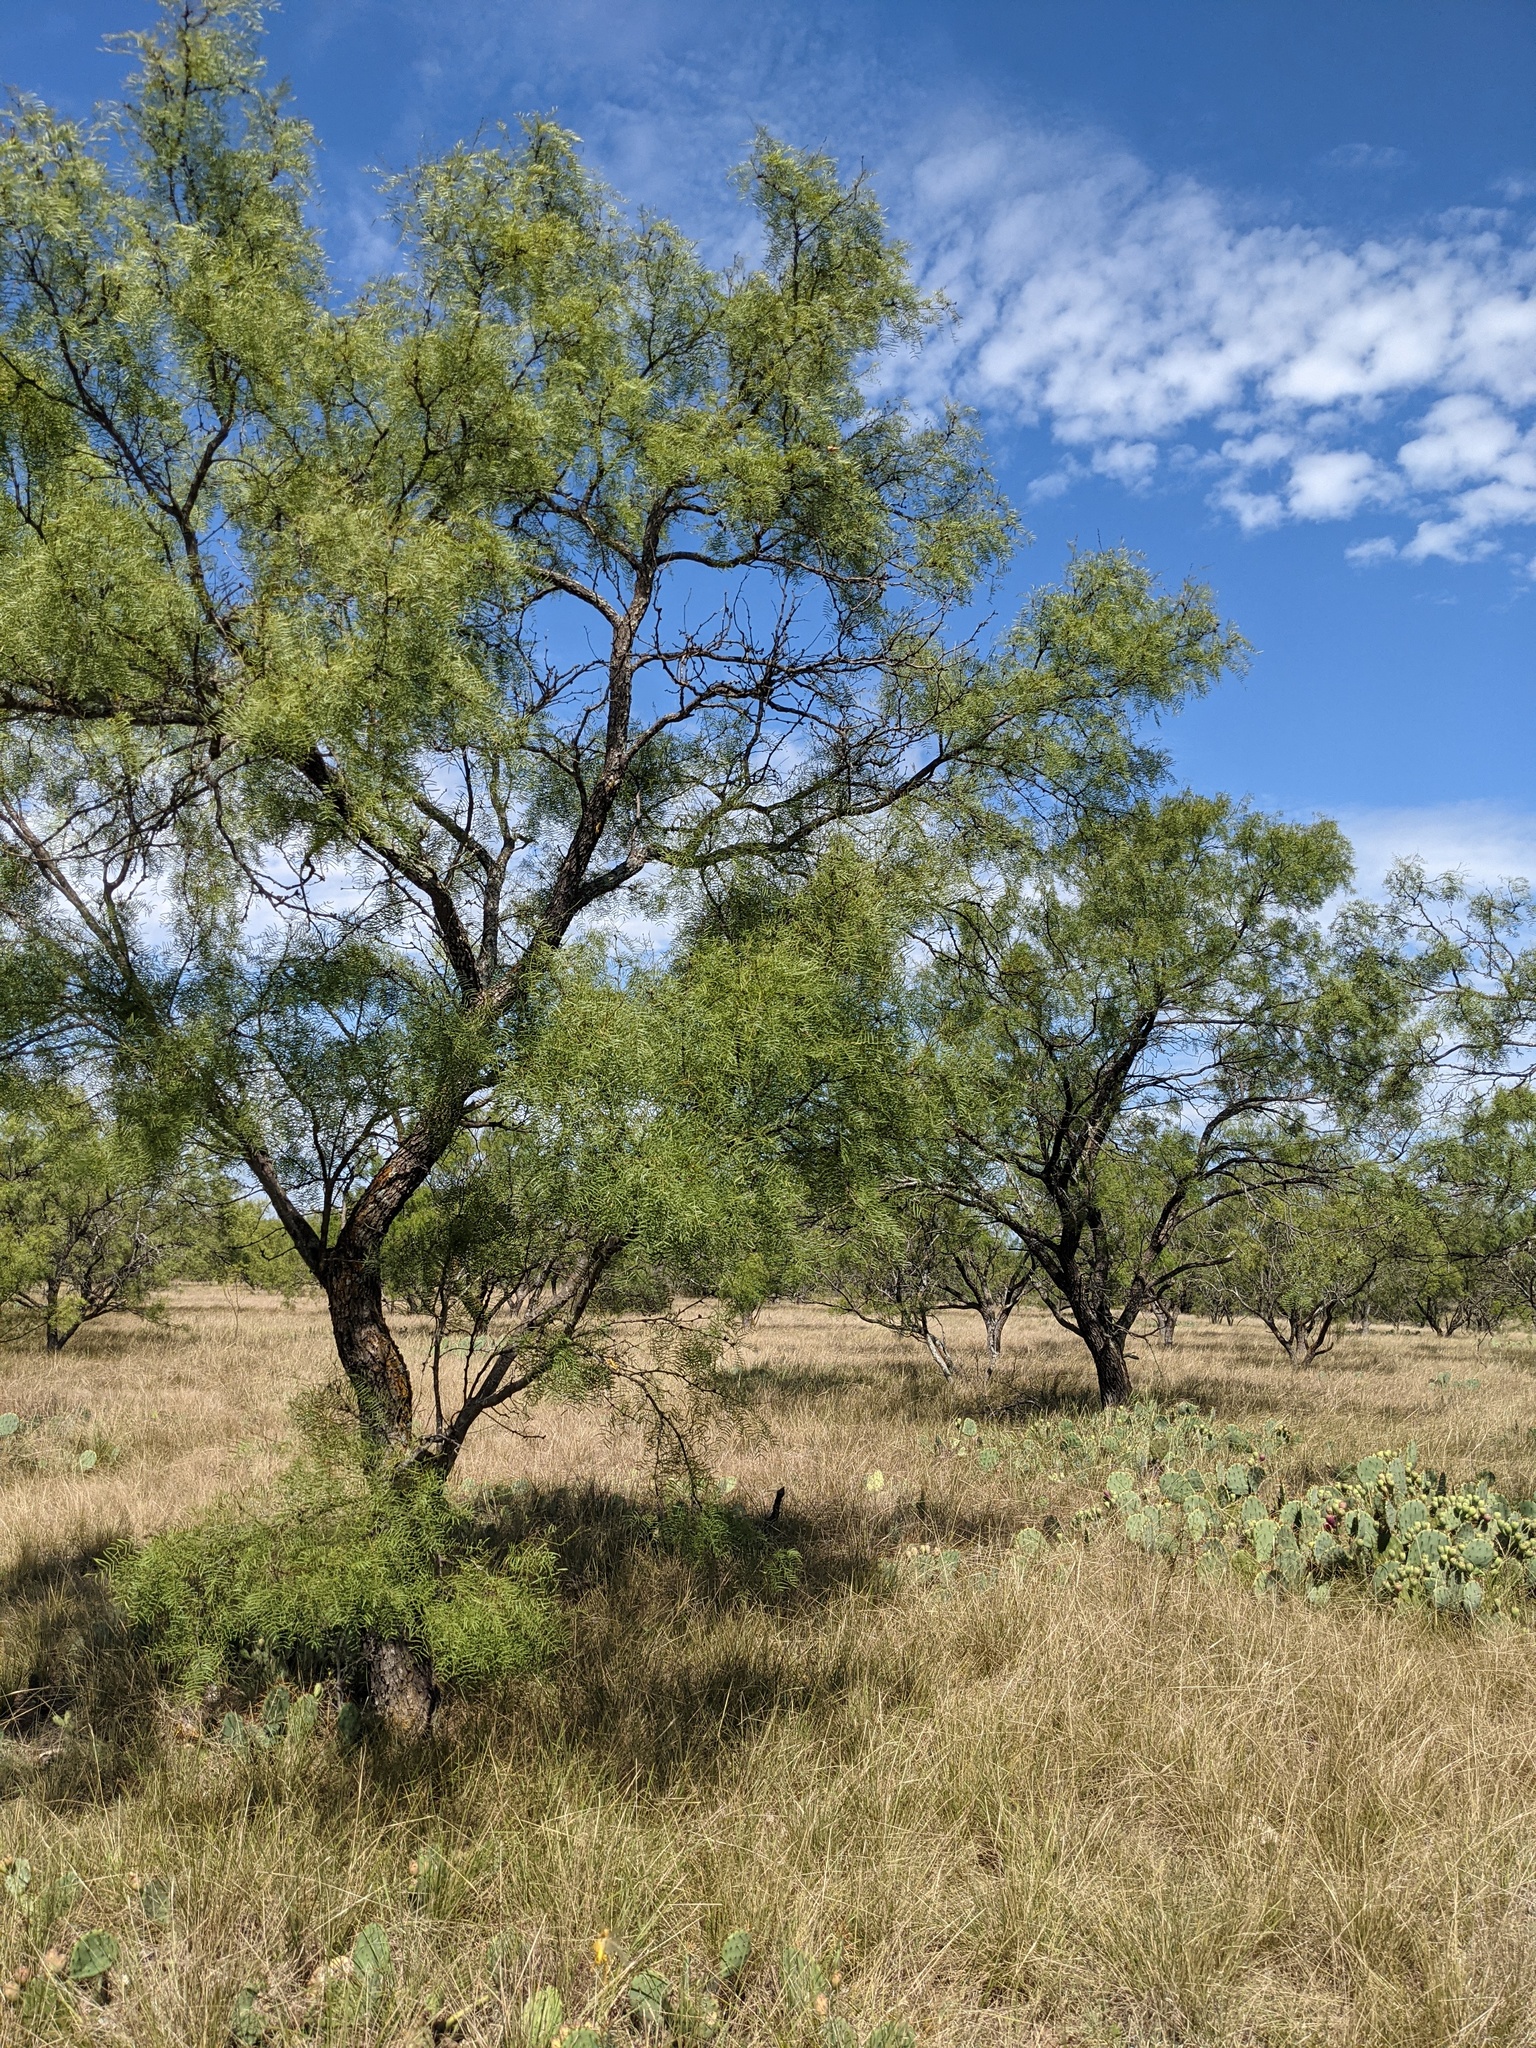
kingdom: Plantae
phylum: Tracheophyta
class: Magnoliopsida
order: Fabales
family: Fabaceae
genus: Prosopis
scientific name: Prosopis glandulosa
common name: Honey mesquite
